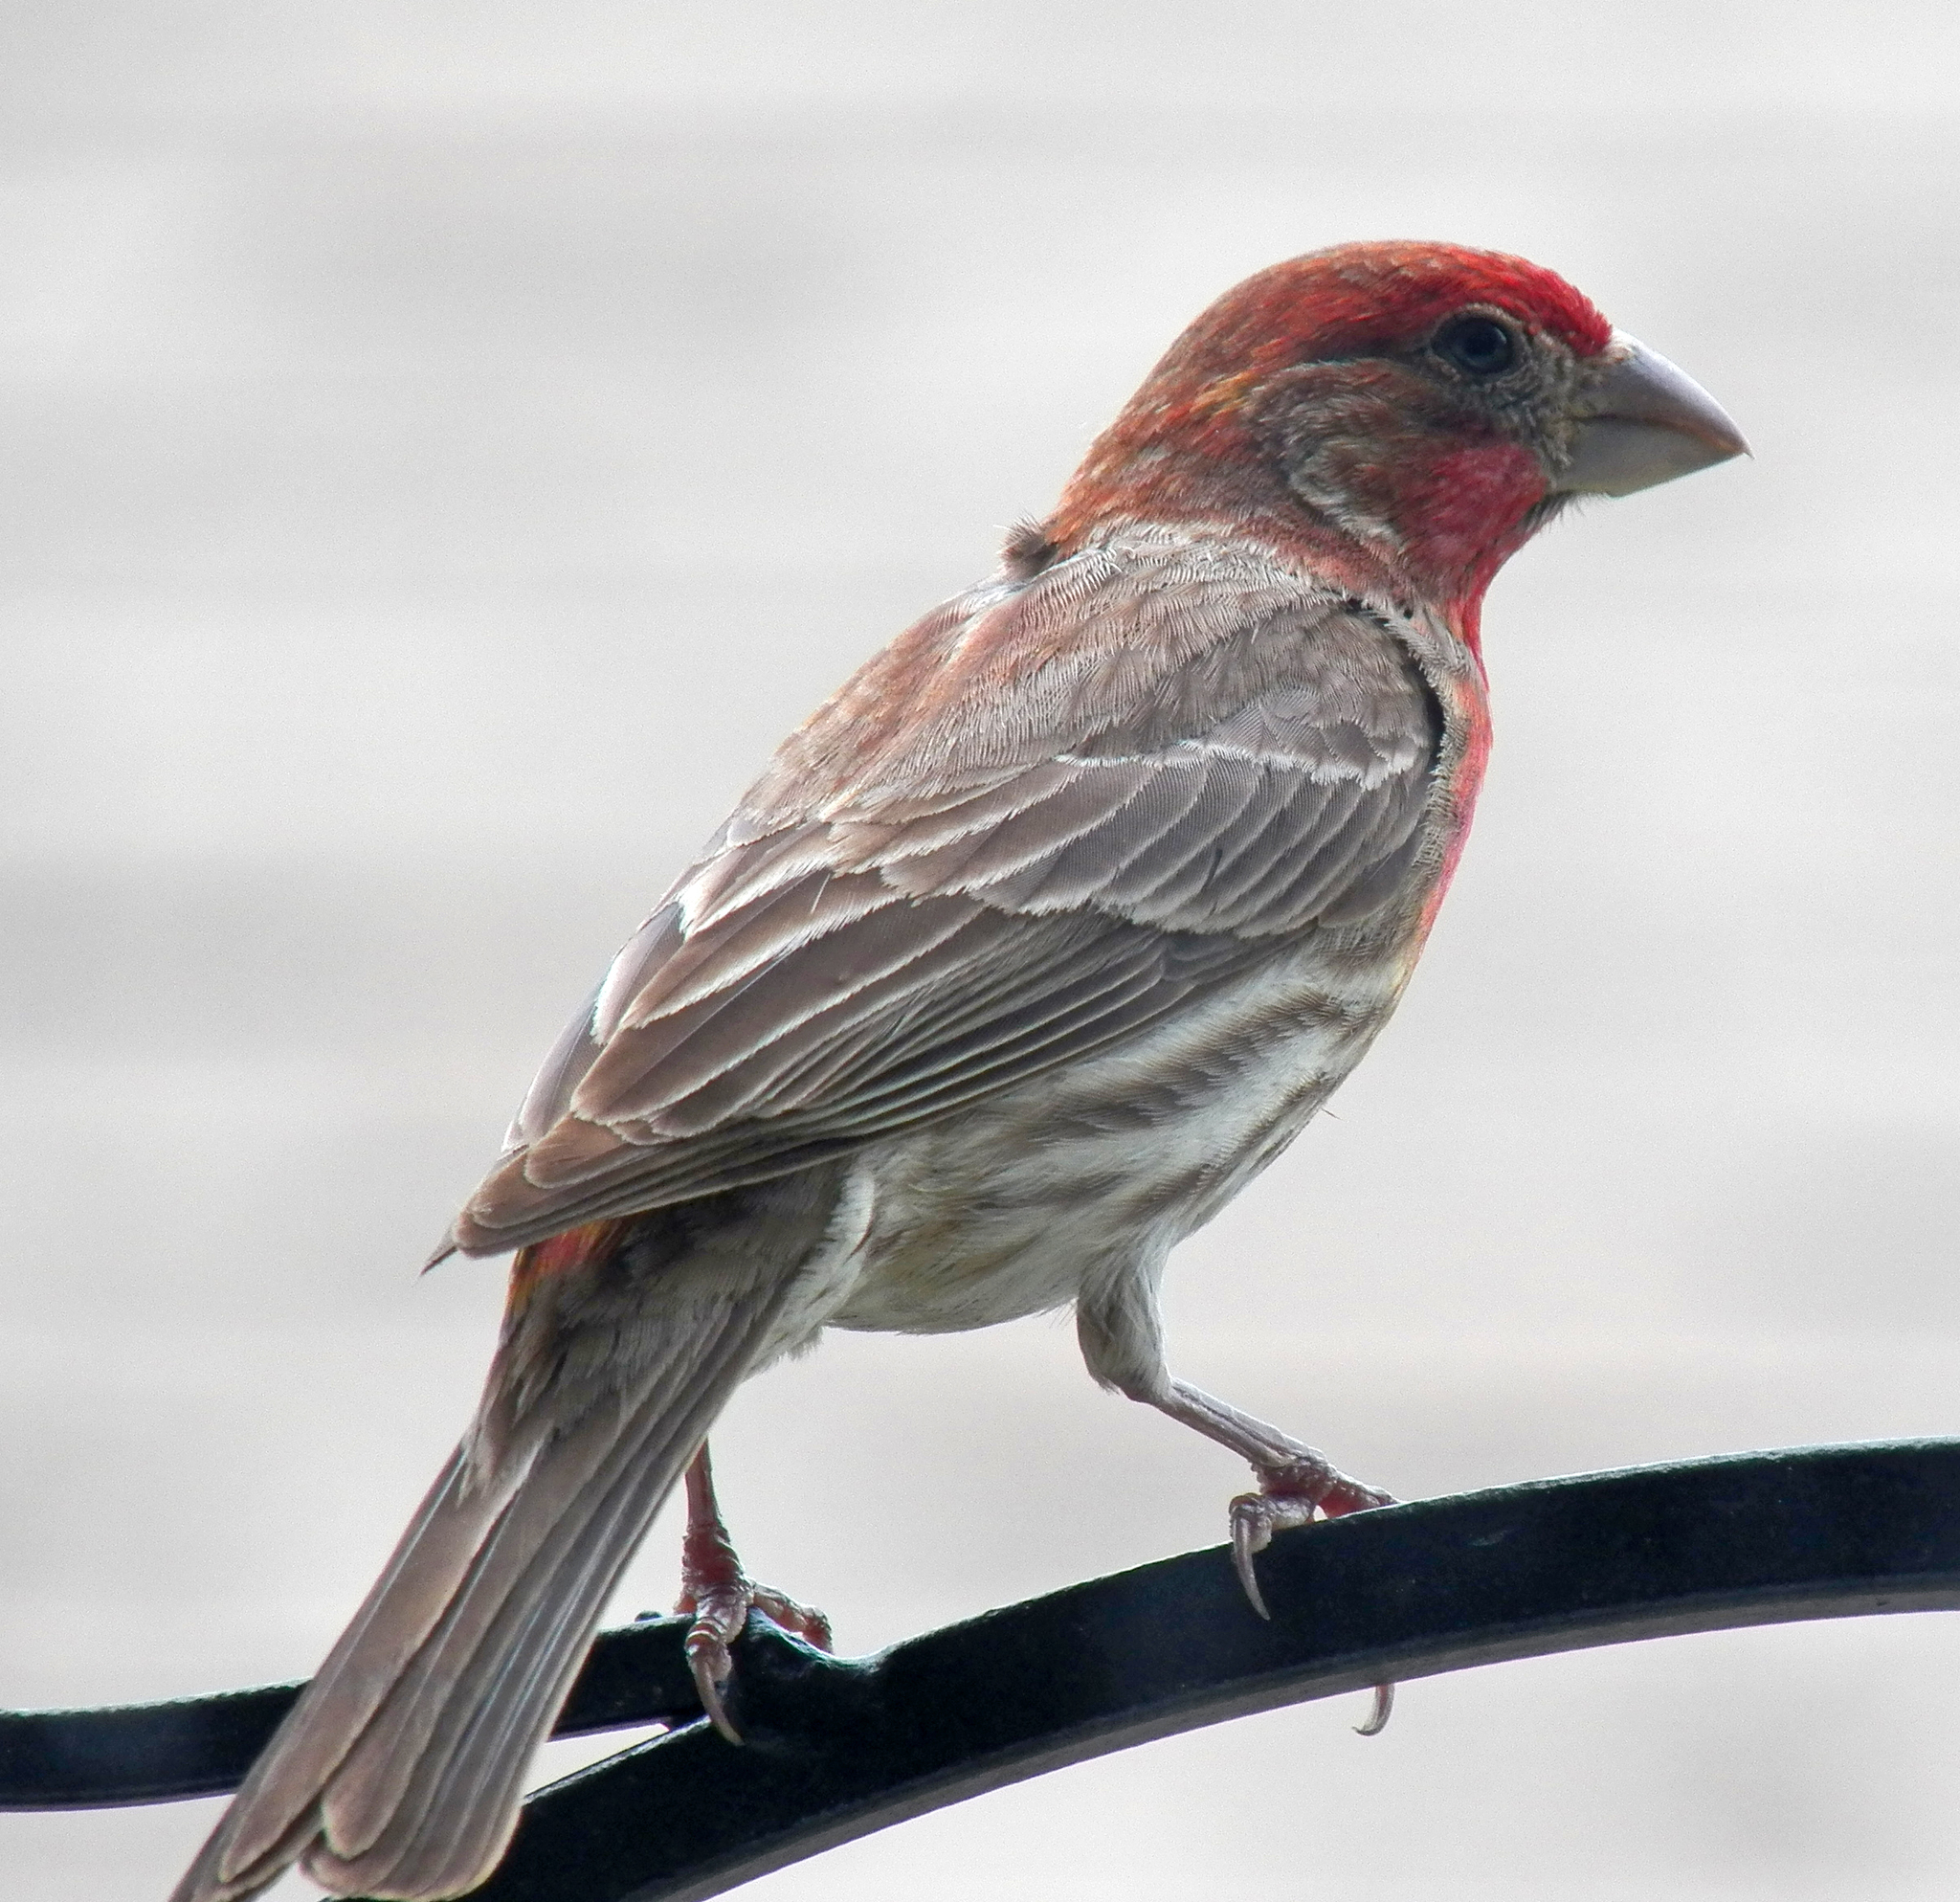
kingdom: Animalia
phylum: Chordata
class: Aves
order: Passeriformes
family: Fringillidae
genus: Haemorhous
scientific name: Haemorhous mexicanus
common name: House finch
